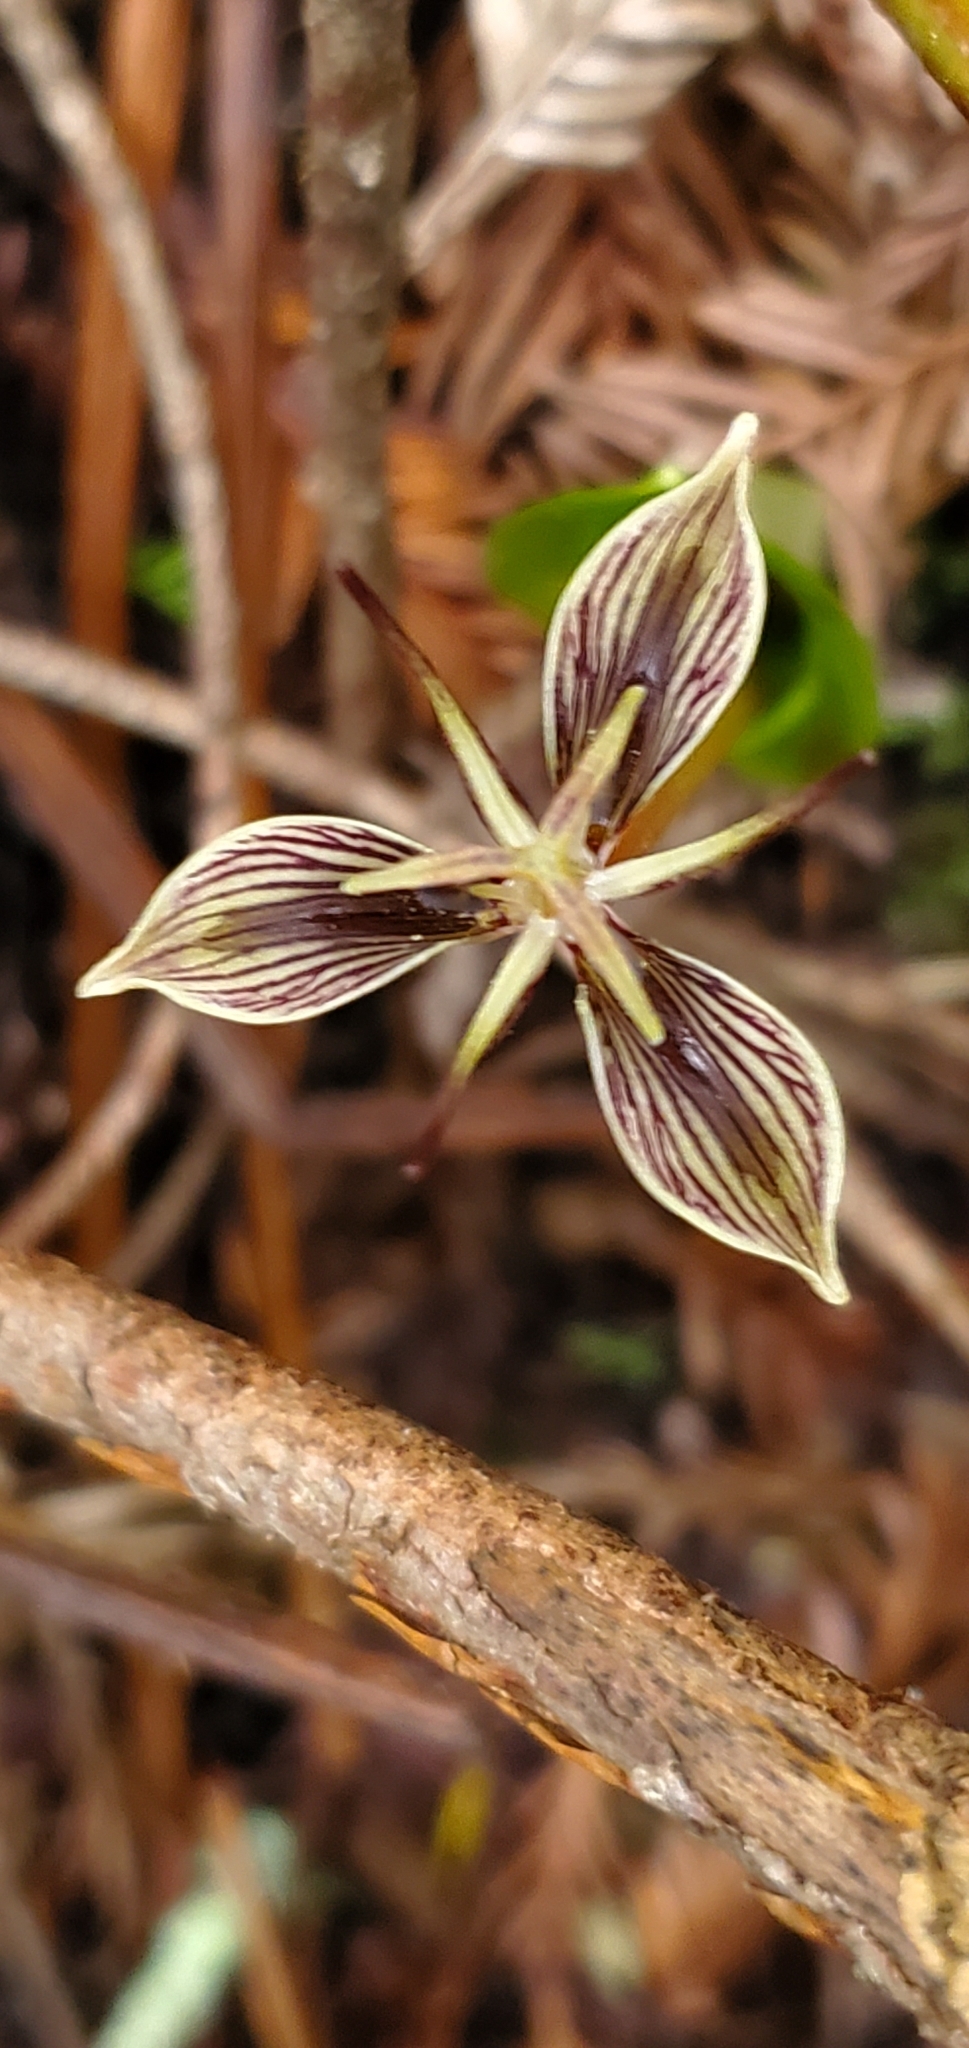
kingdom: Plantae
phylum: Tracheophyta
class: Liliopsida
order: Liliales
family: Liliaceae
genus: Scoliopus
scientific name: Scoliopus bigelovii
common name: Foetid adder's-tongue
